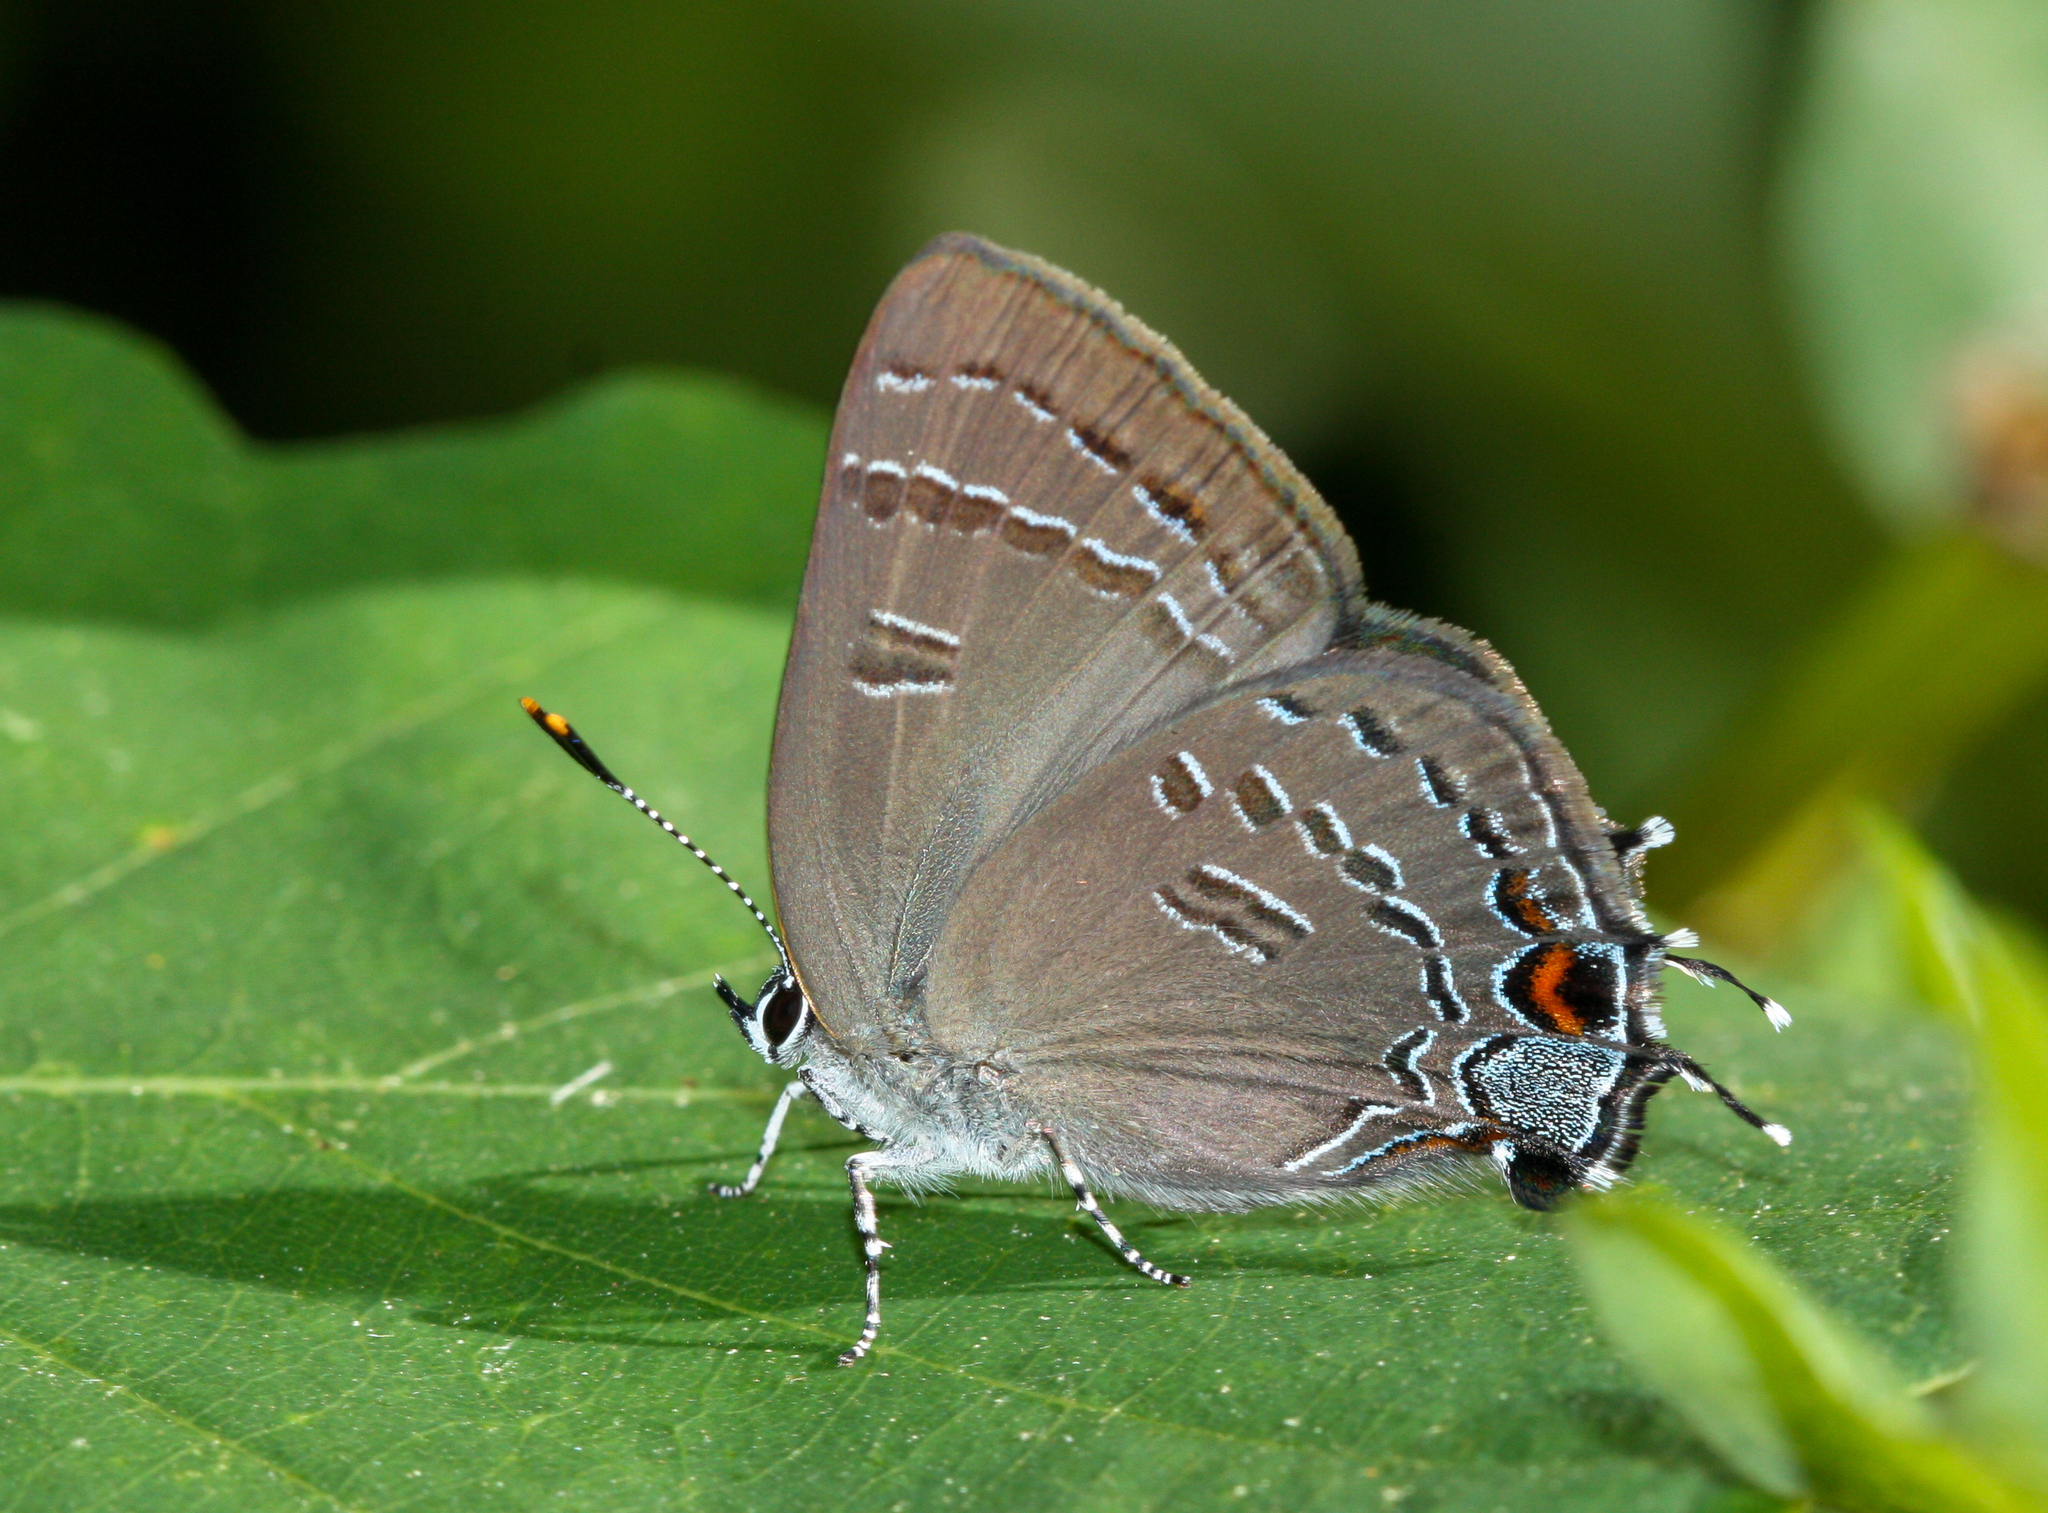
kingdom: Animalia
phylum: Arthropoda
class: Insecta
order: Lepidoptera
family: Lycaenidae
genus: Satyrium
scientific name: Satyrium calanus
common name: Banded hairstreak
